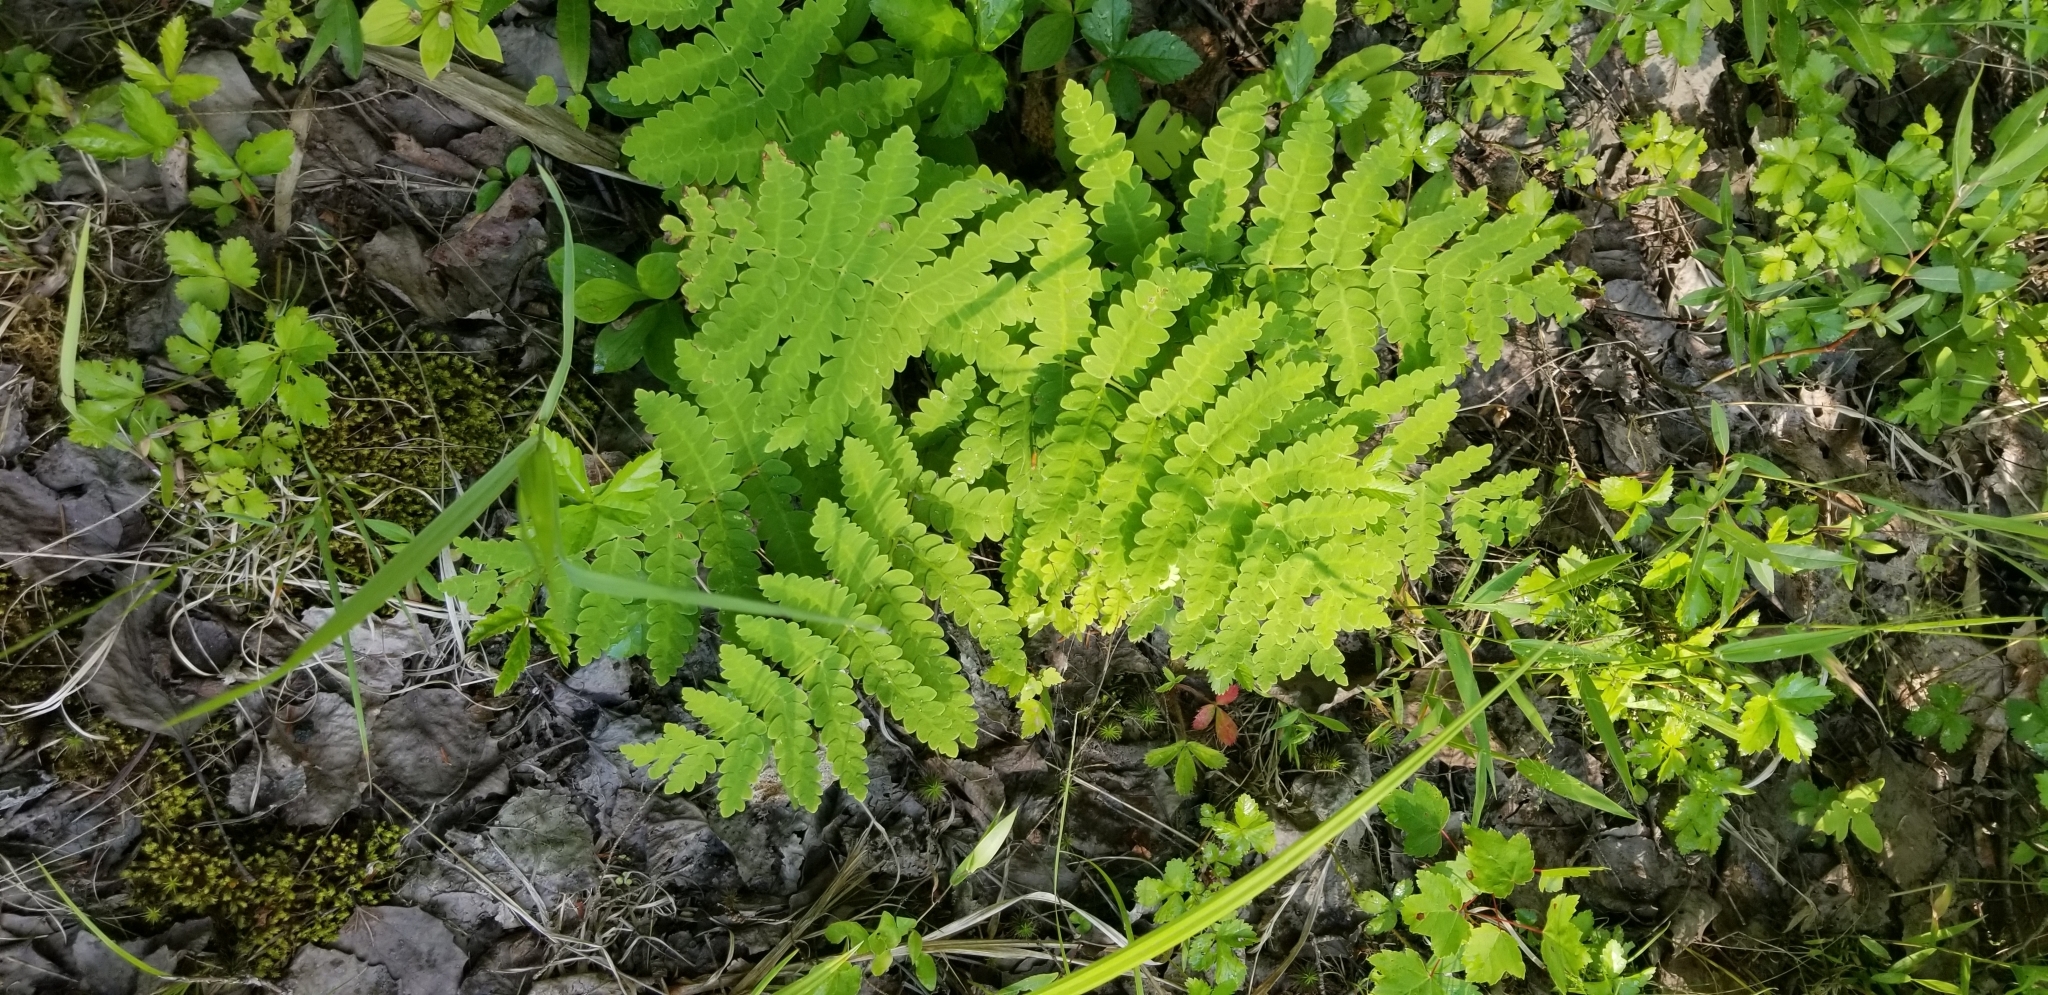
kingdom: Plantae
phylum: Tracheophyta
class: Polypodiopsida
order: Osmundales
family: Osmundaceae
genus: Claytosmunda
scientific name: Claytosmunda claytoniana
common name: Clayton's fern
